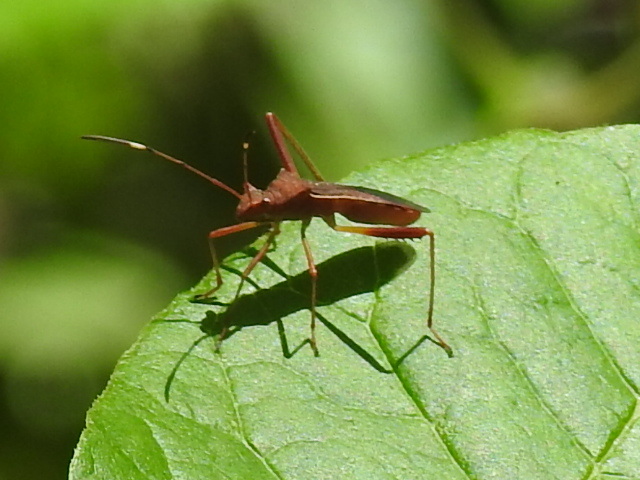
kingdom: Animalia
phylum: Arthropoda
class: Insecta
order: Hemiptera
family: Alydidae
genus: Megalotomus
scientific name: Megalotomus quinquespinosus
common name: Lupine bug
